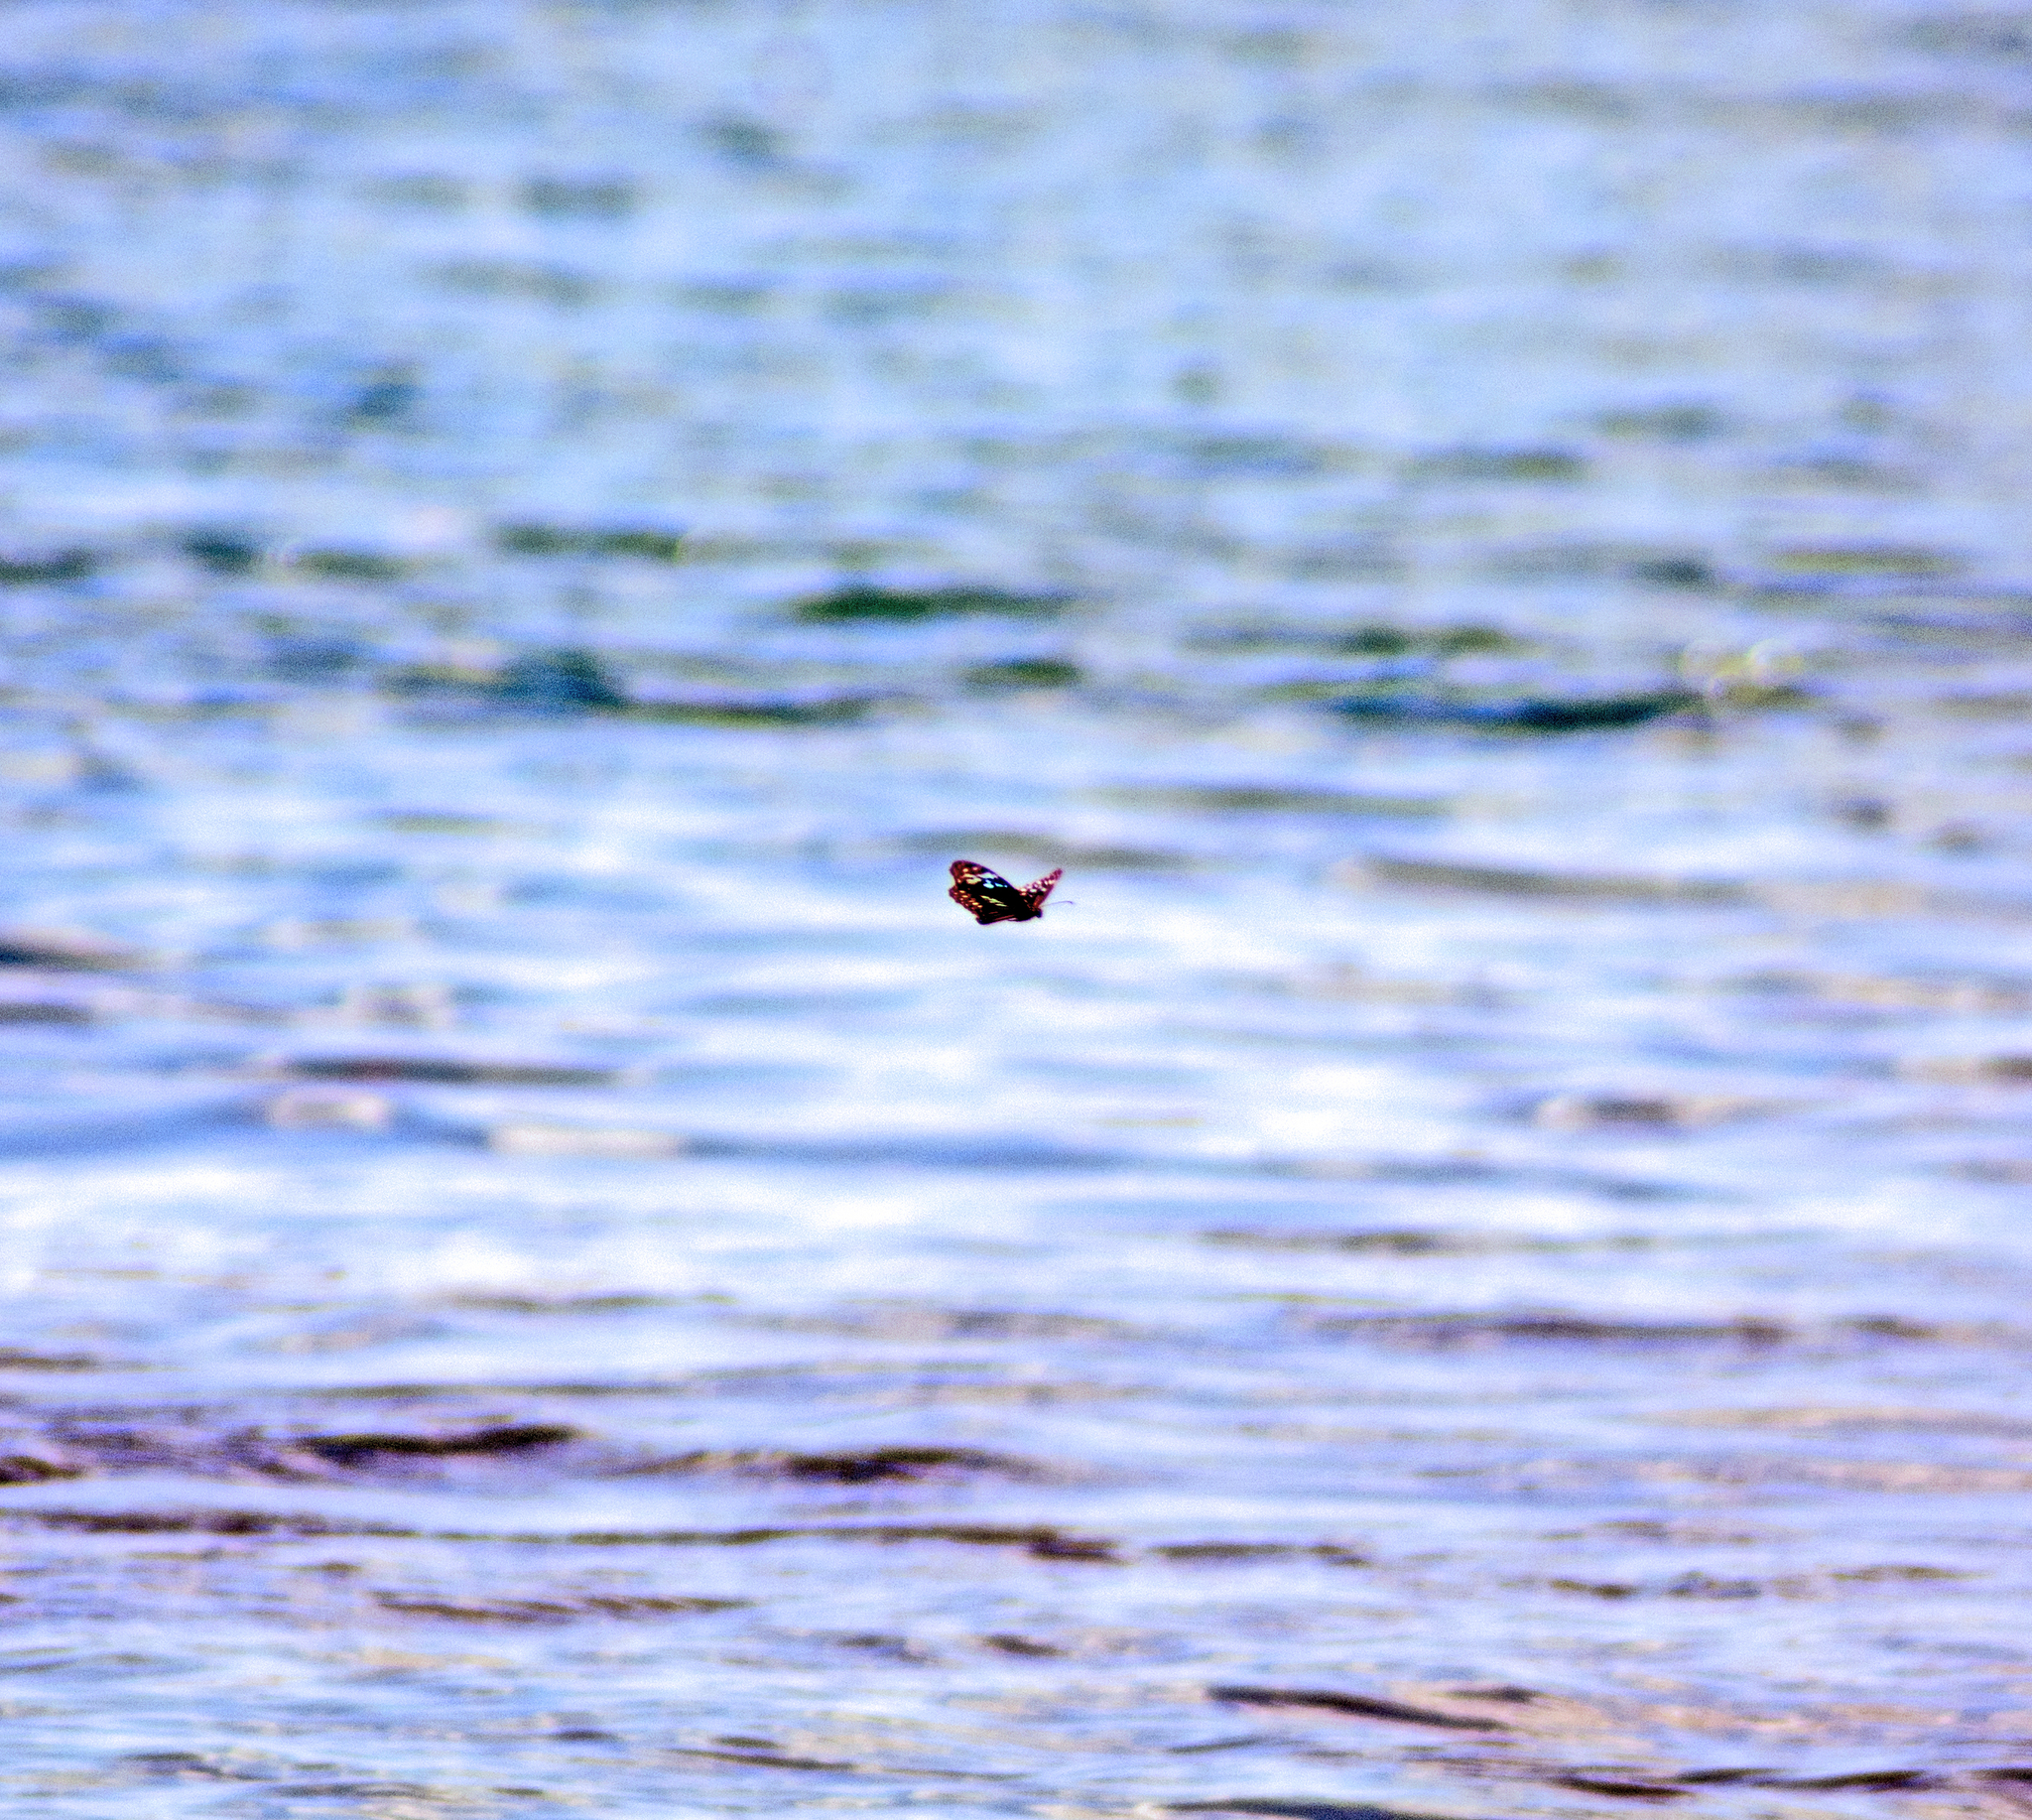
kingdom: Animalia
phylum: Arthropoda
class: Insecta
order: Lepidoptera
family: Nymphalidae
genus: Tirumala
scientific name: Tirumala hamata
